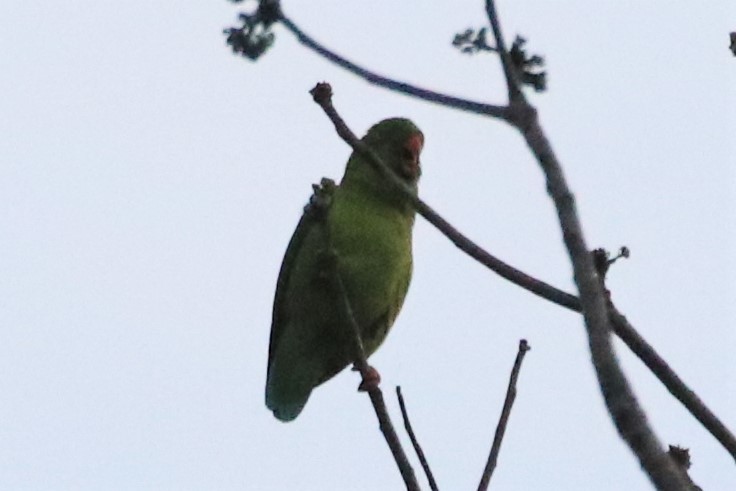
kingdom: Animalia
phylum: Chordata
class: Aves
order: Psittaciformes
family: Psittacidae
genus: Loriculus
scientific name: Loriculus vernalis
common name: Vernal hanging parrot
